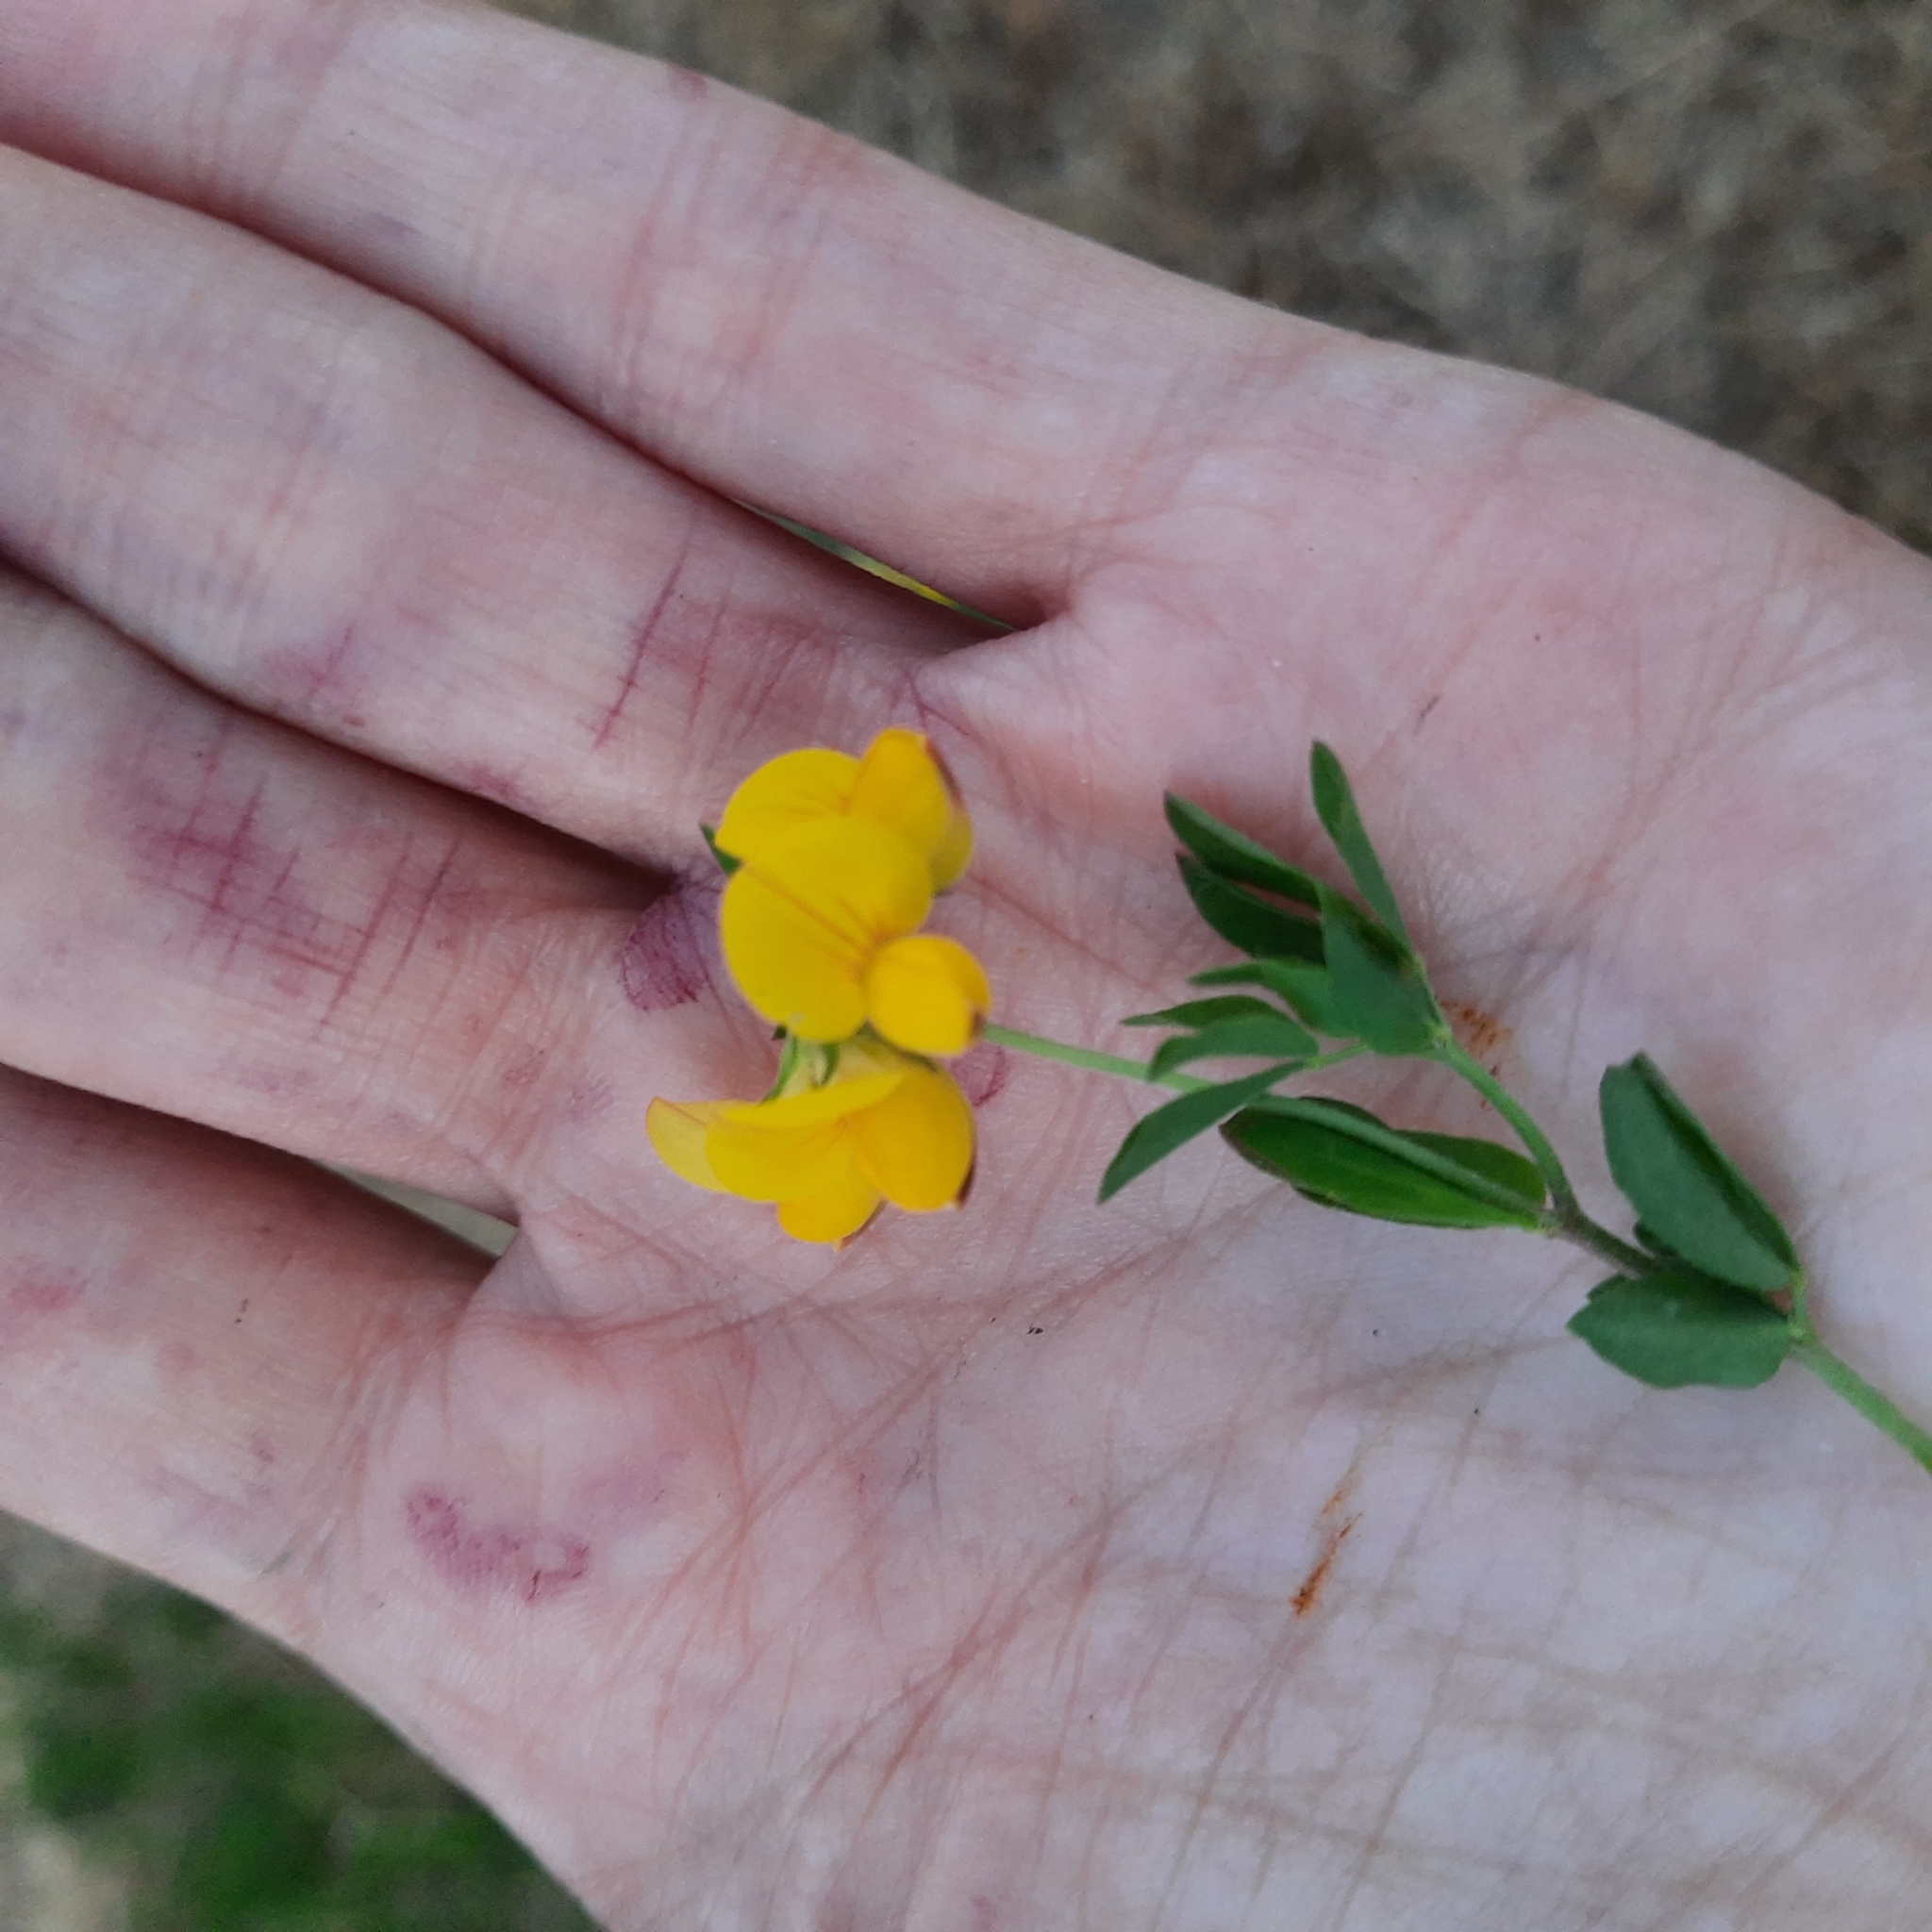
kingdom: Plantae
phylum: Tracheophyta
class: Magnoliopsida
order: Fabales
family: Fabaceae
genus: Lotus
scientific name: Lotus corniculatus
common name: Common bird's-foot-trefoil
